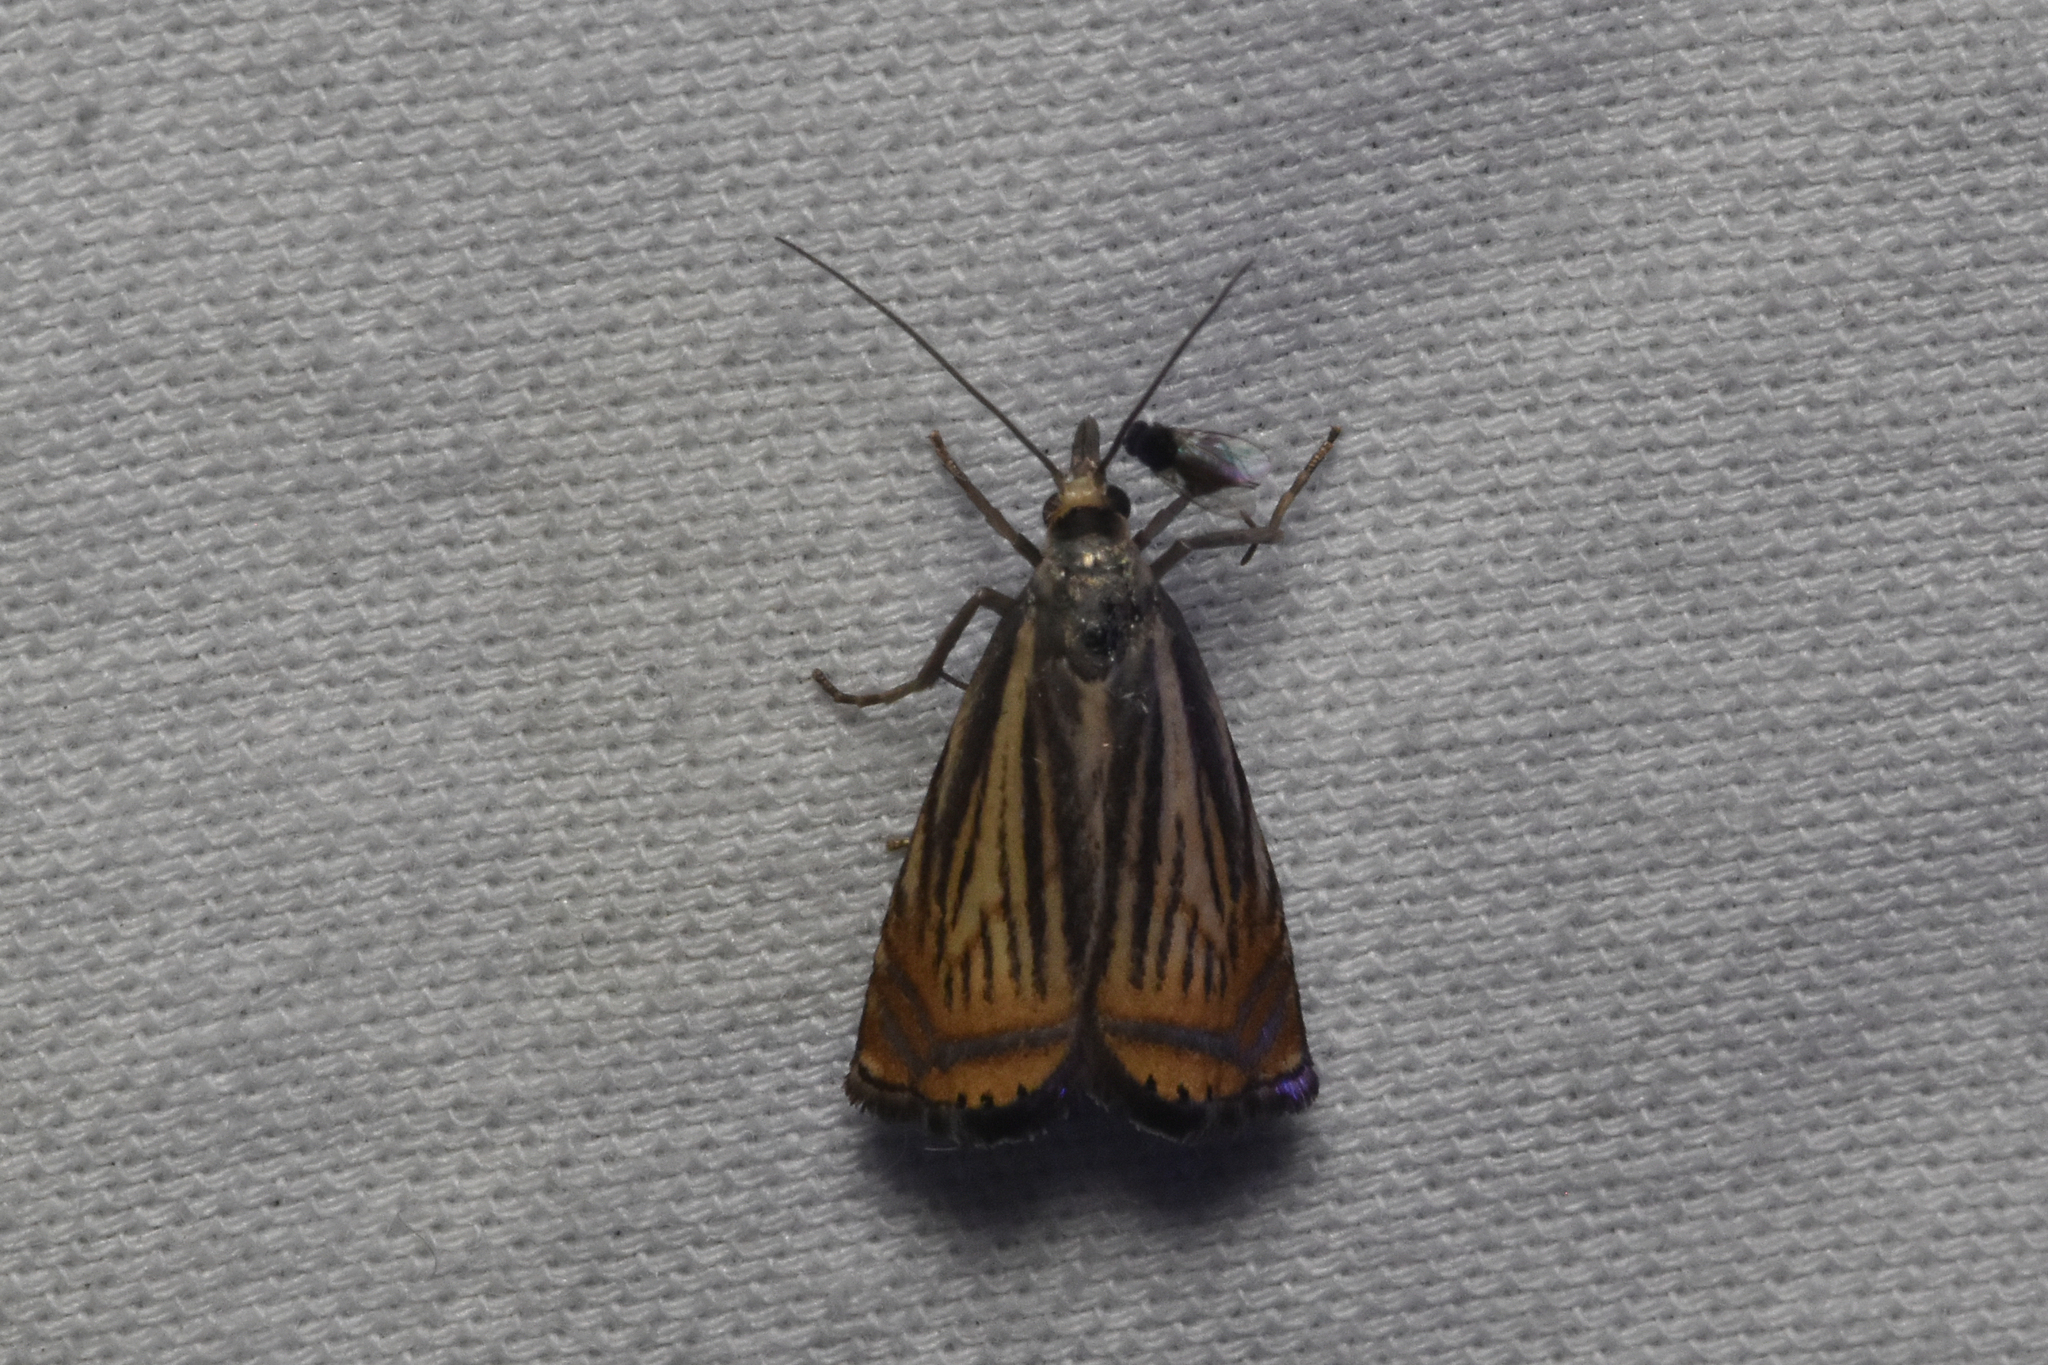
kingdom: Animalia
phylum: Arthropoda
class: Insecta
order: Lepidoptera
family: Crambidae
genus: Chrysoteuchia
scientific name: Chrysoteuchia topiarius
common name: Topiary grass-veneer
